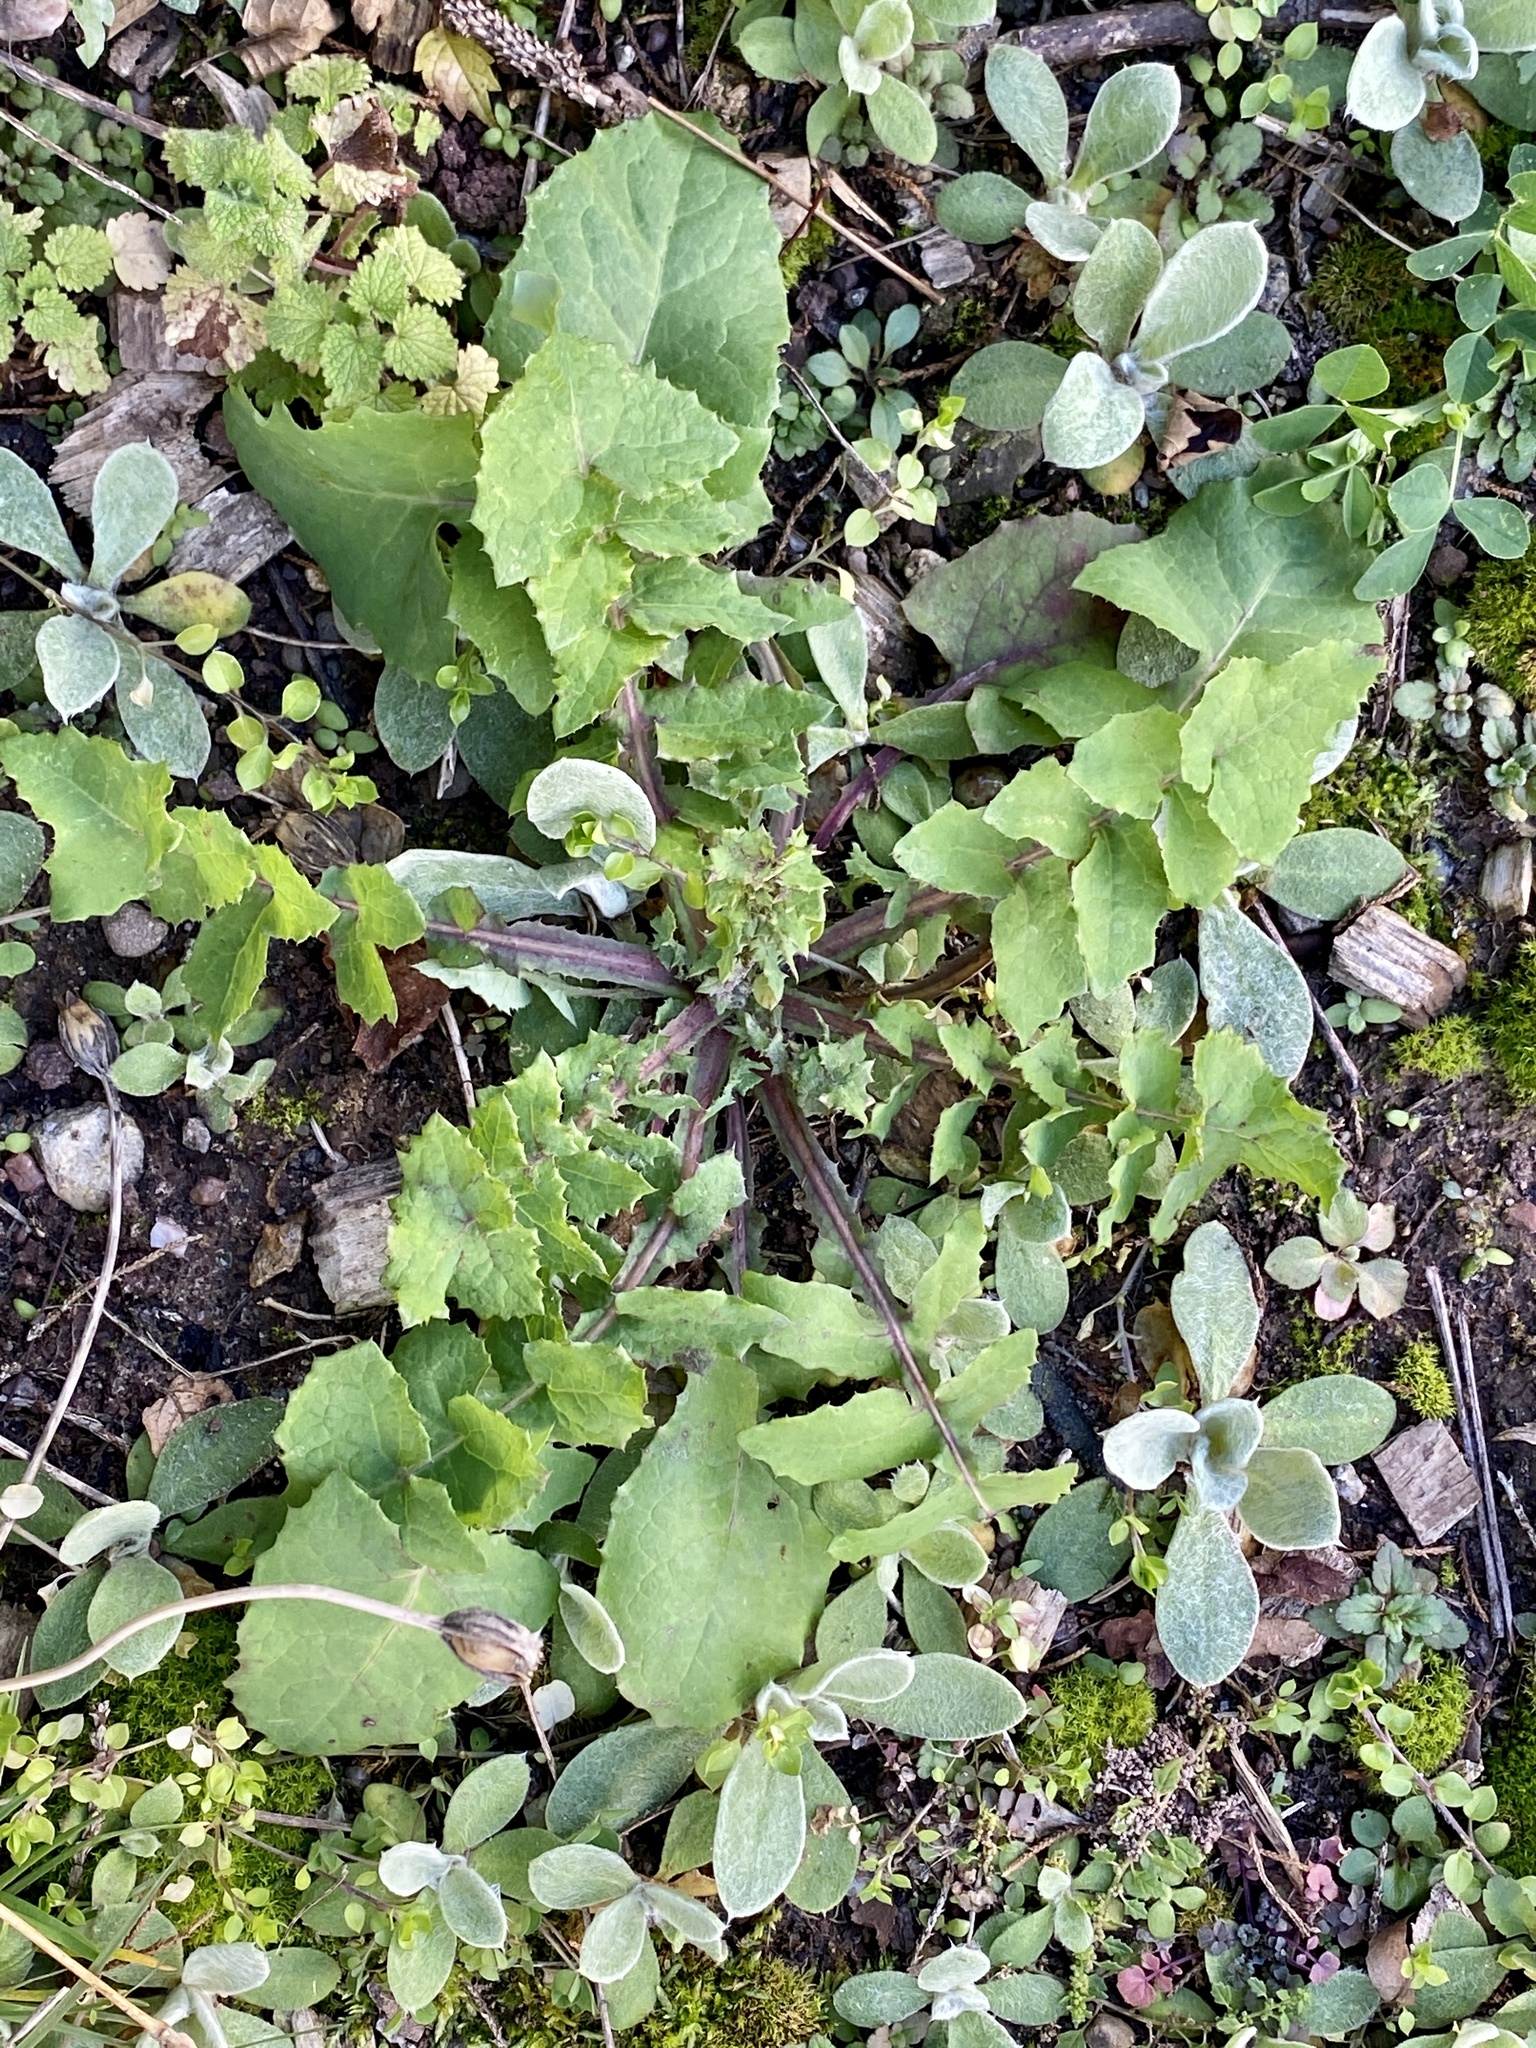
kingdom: Plantae
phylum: Tracheophyta
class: Magnoliopsida
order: Asterales
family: Asteraceae
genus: Sonchus
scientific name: Sonchus oleraceus
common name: Common sowthistle
